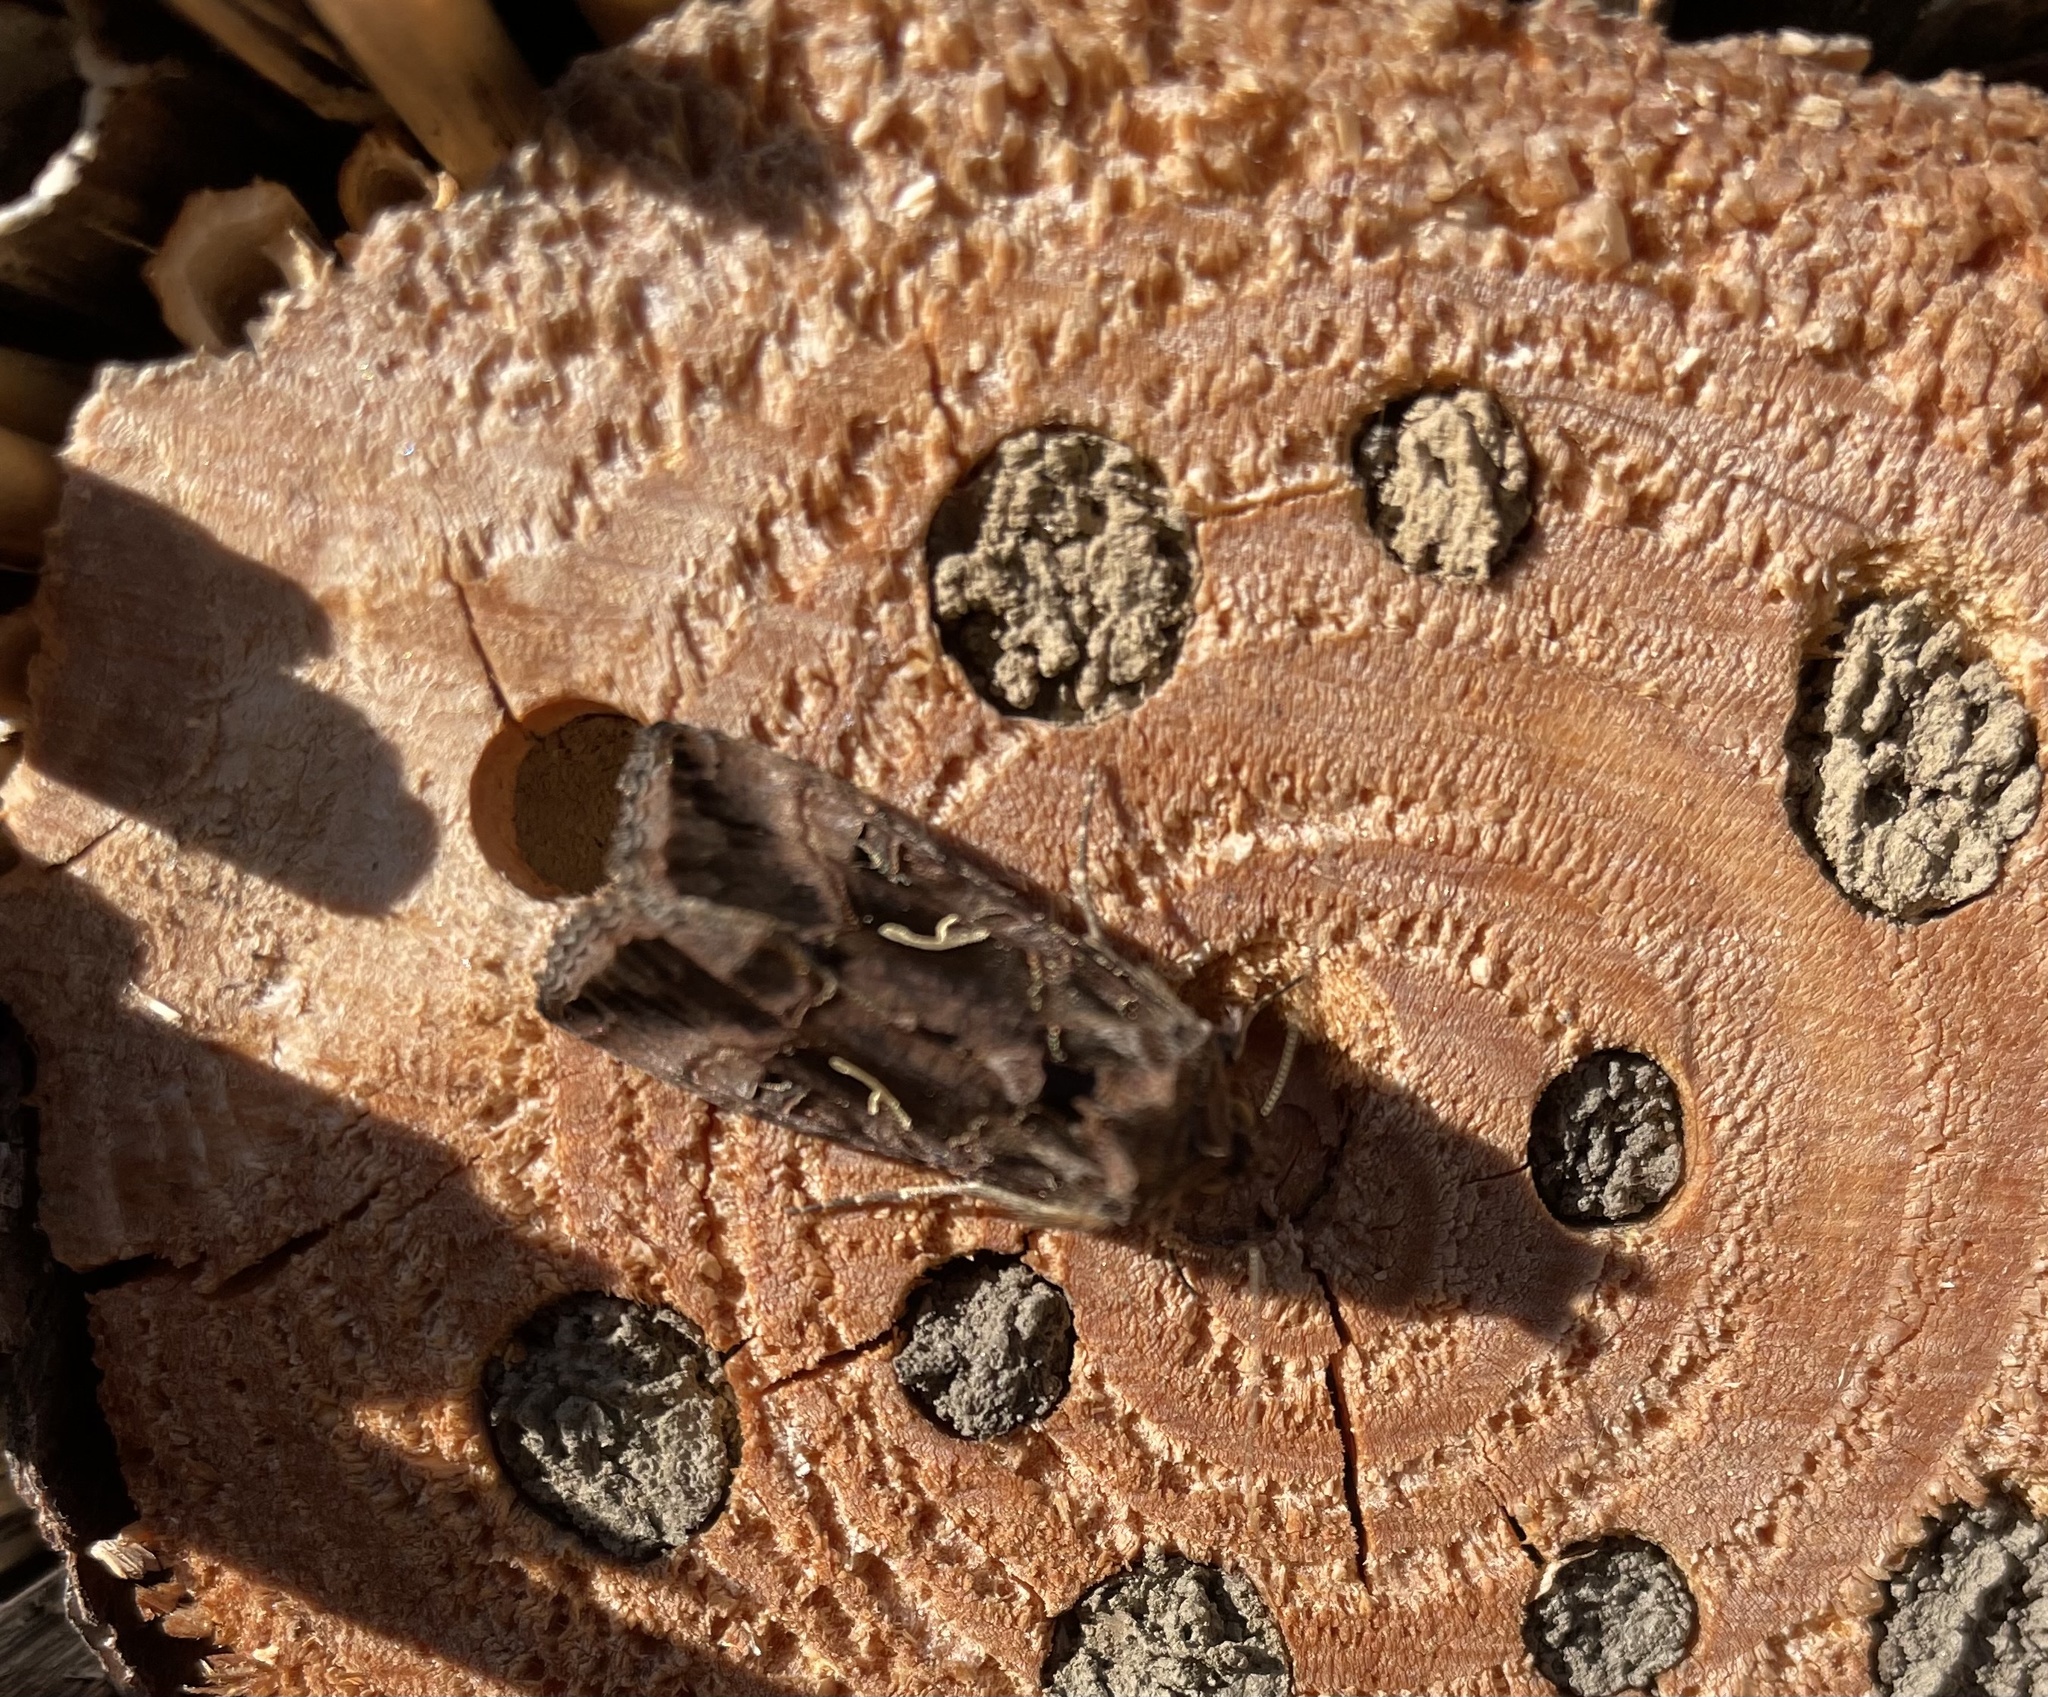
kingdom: Animalia
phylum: Arthropoda
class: Insecta
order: Lepidoptera
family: Noctuidae
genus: Autographa
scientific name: Autographa gamma
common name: Silver y
